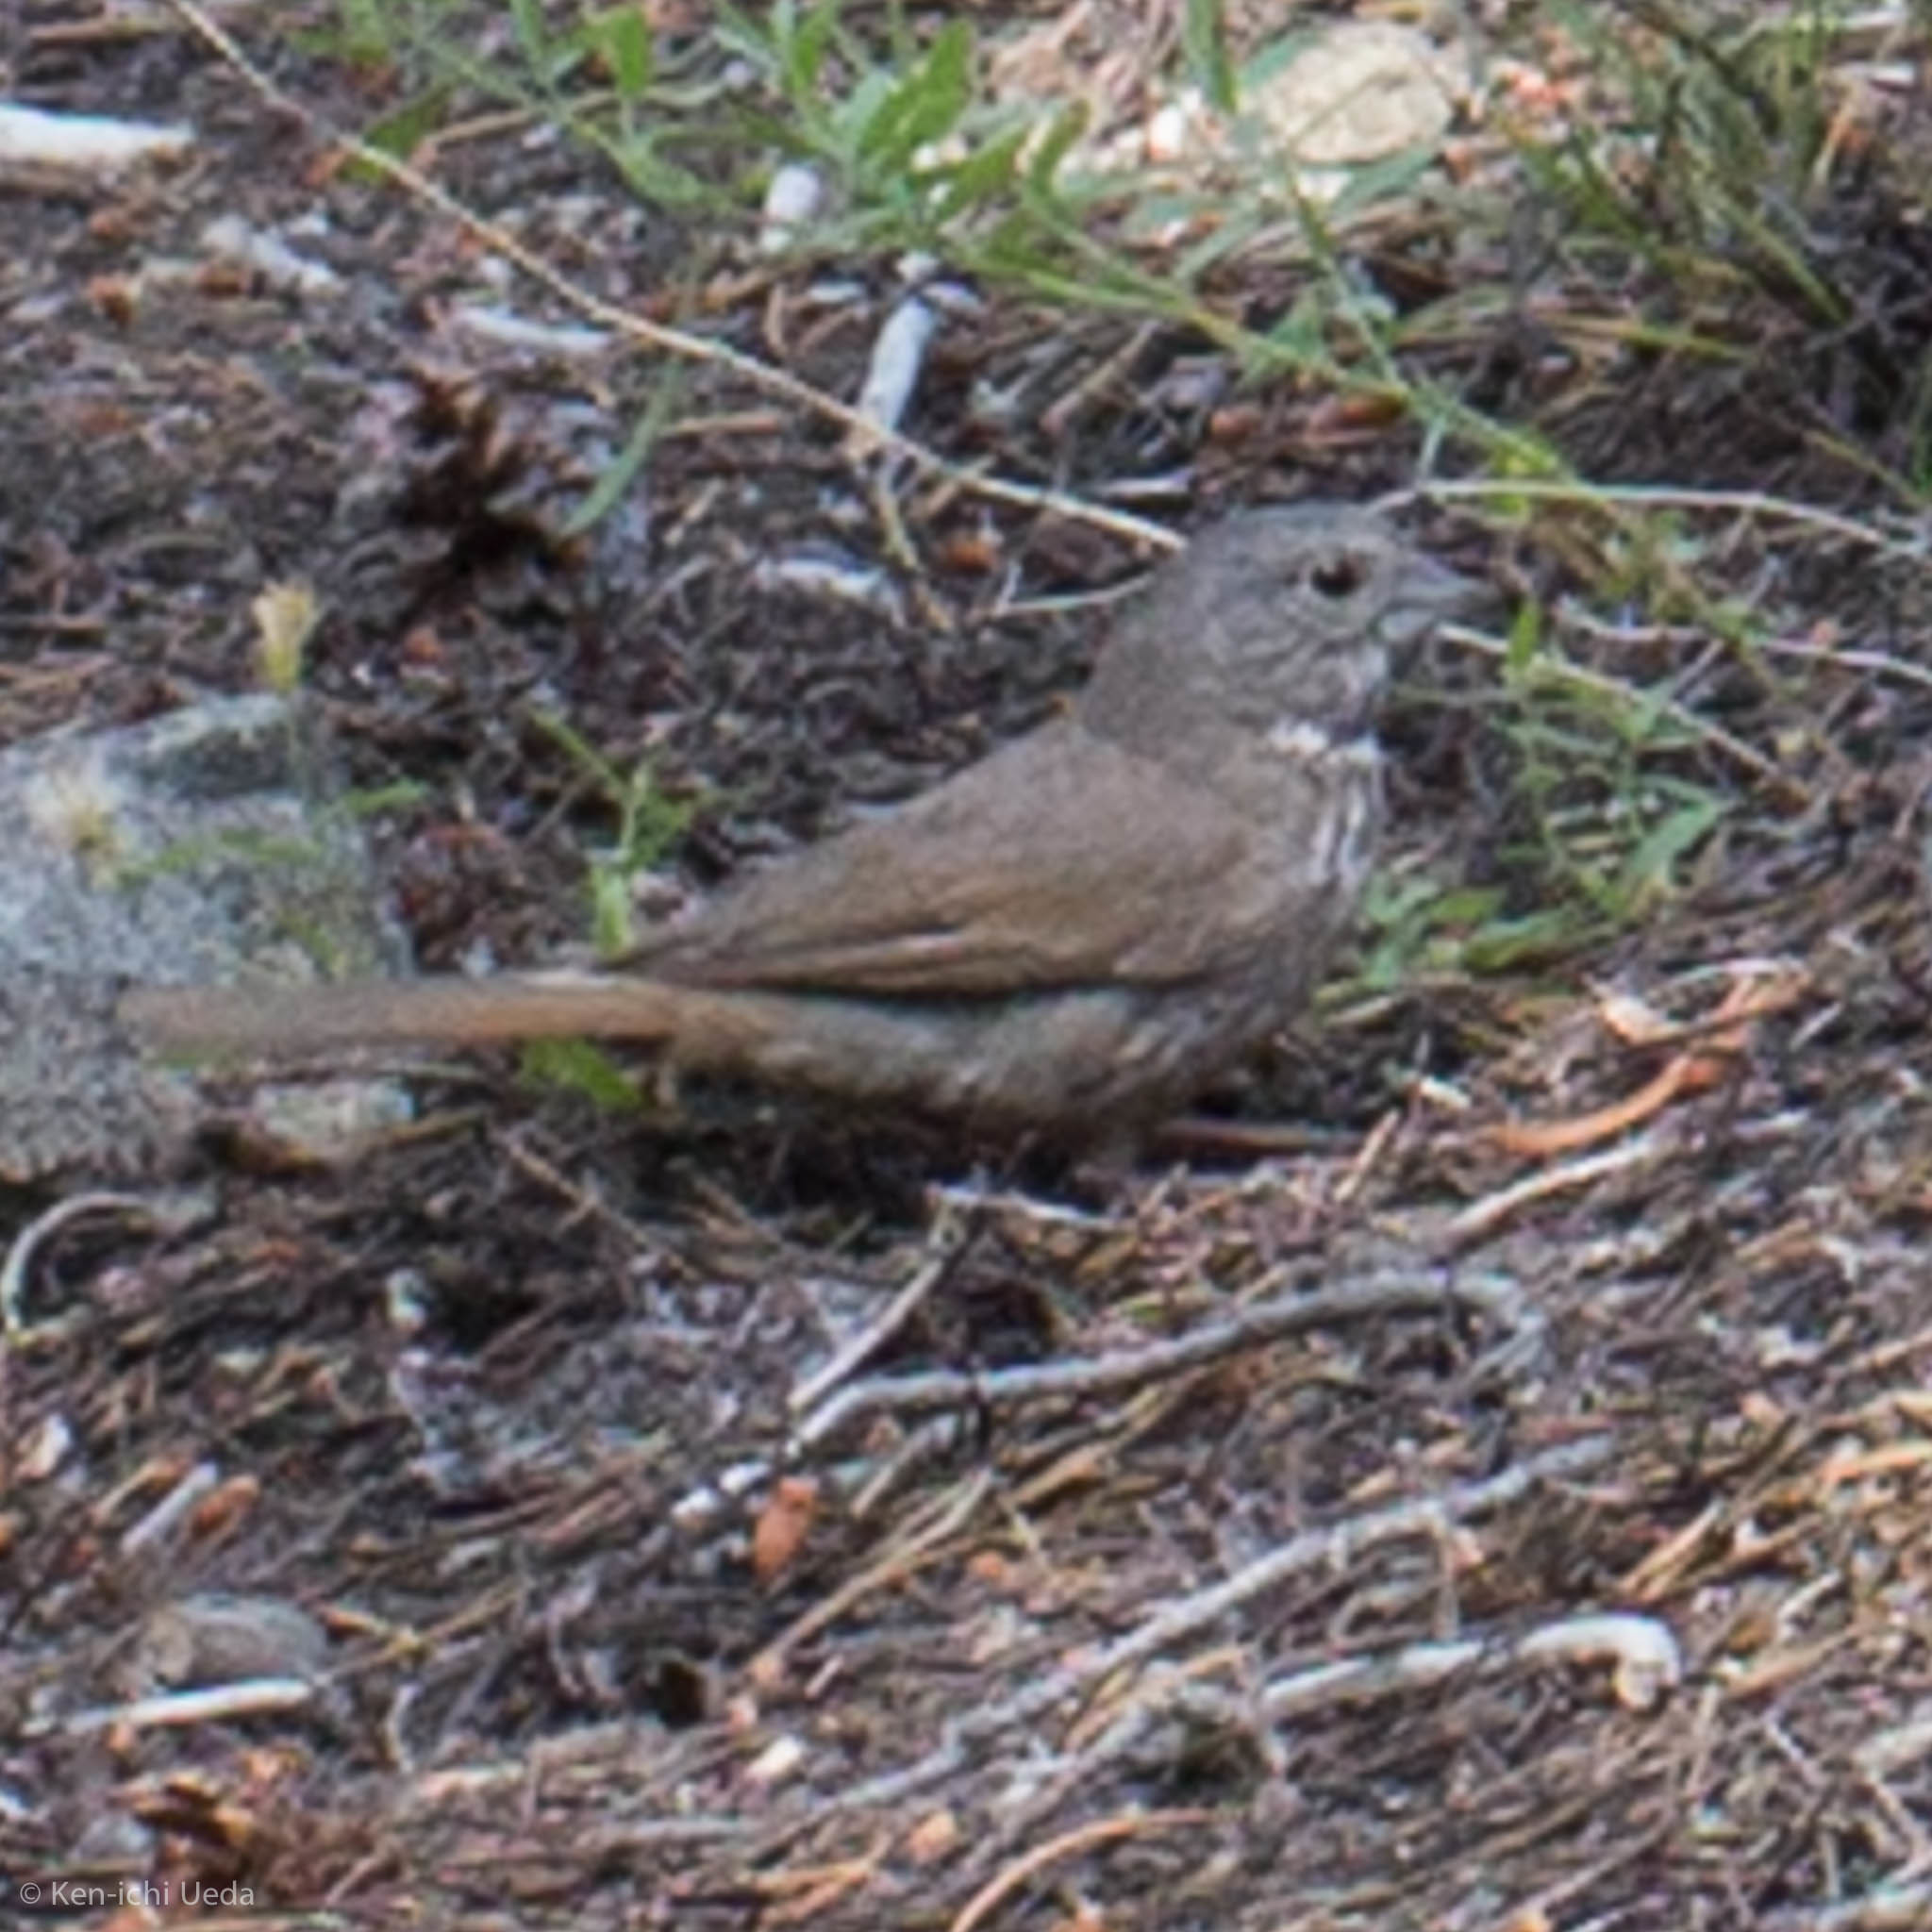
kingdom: Animalia
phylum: Chordata
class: Aves
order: Passeriformes
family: Passerellidae
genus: Passerella
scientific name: Passerella iliaca
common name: Fox sparrow
